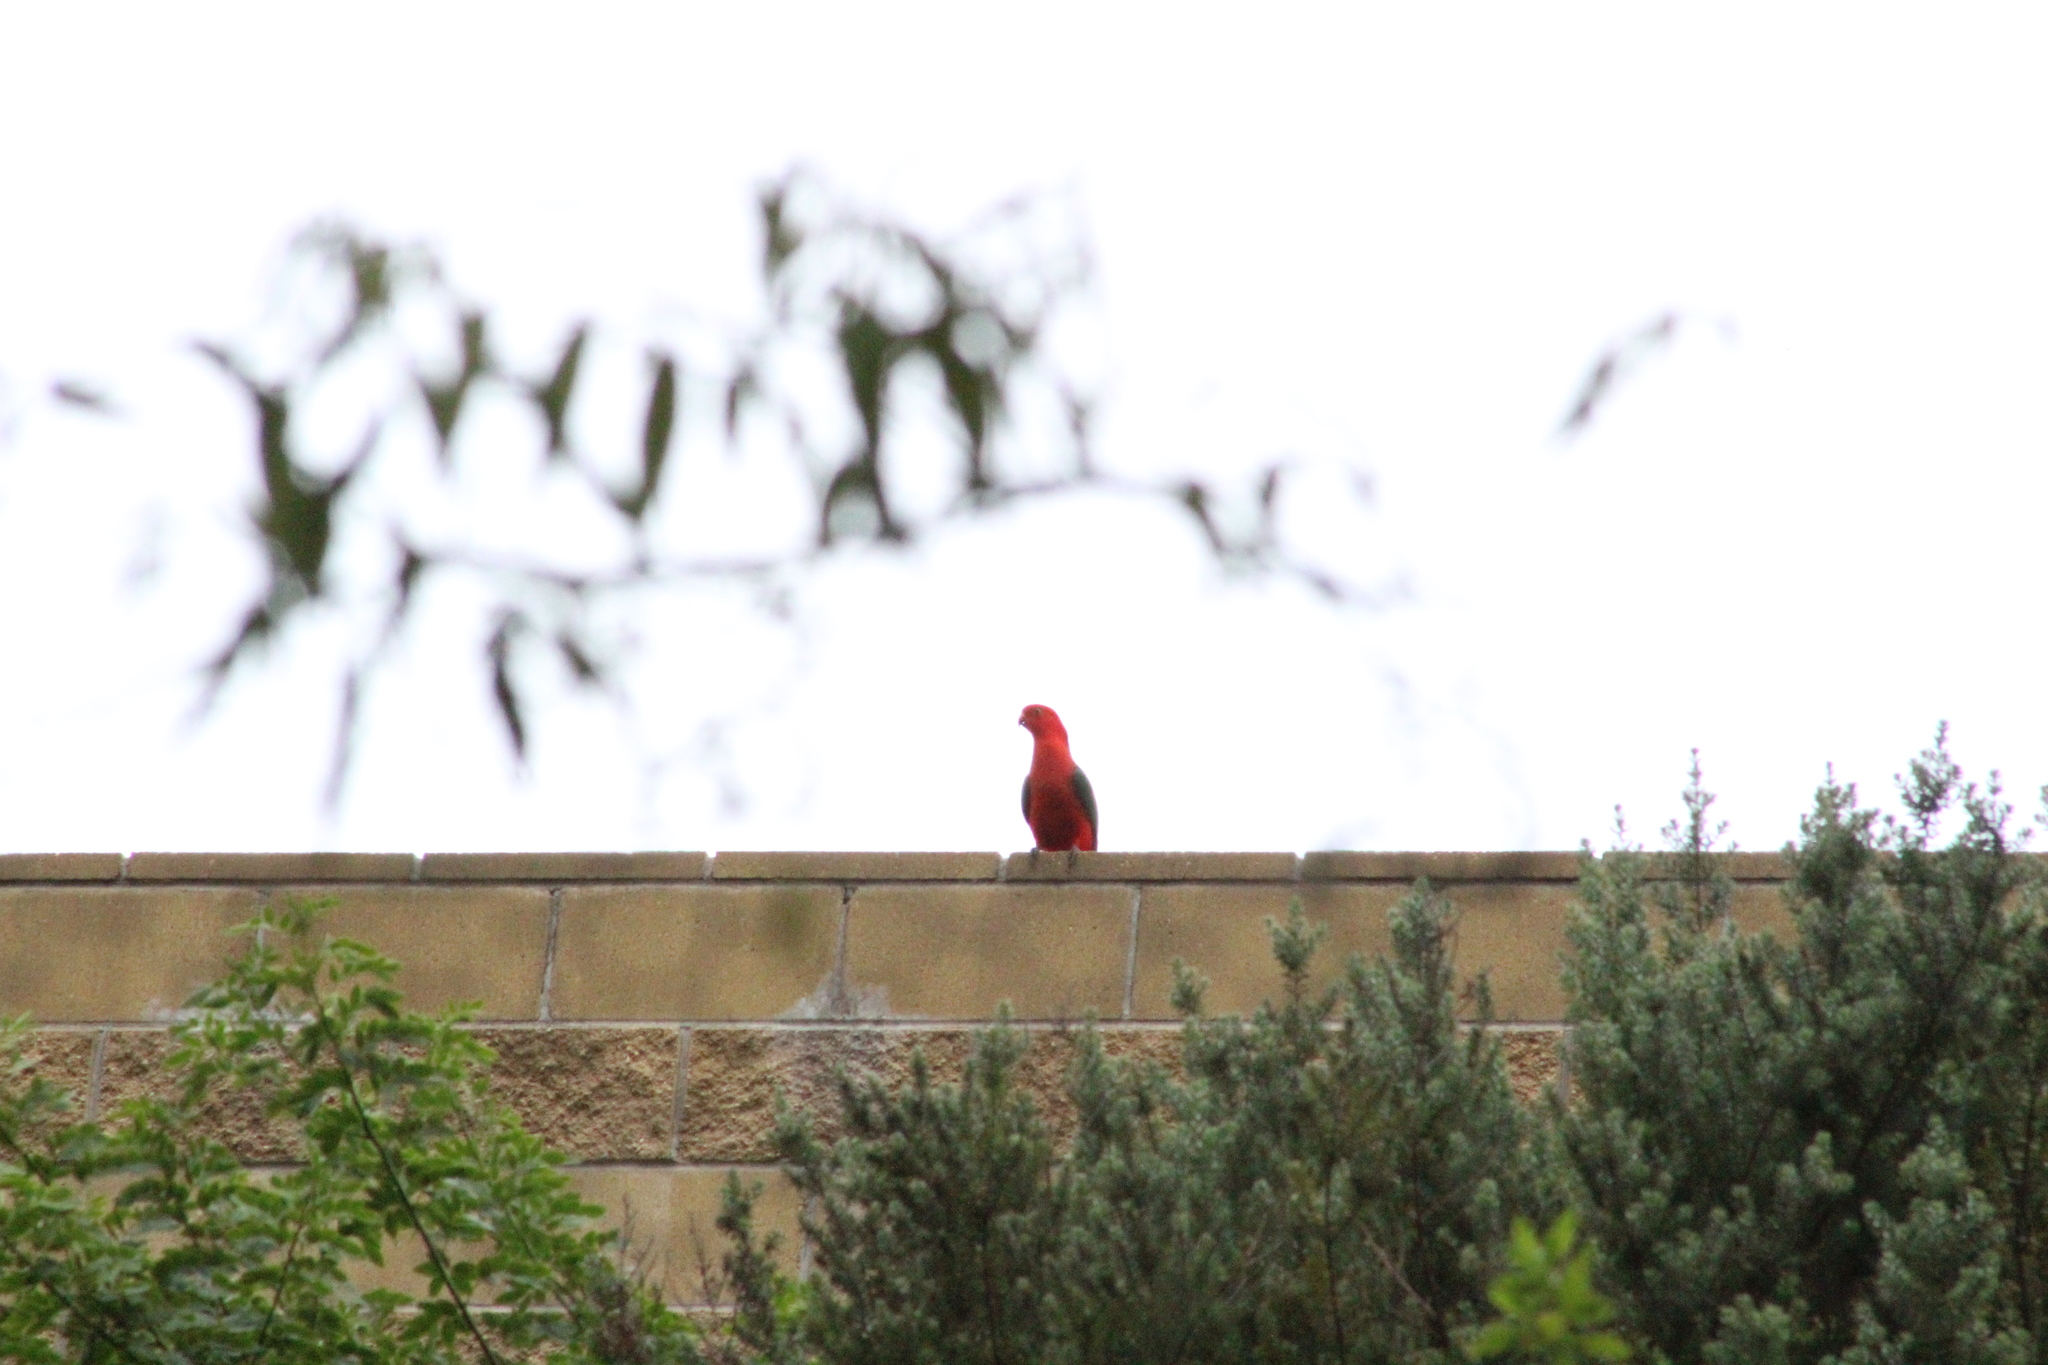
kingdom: Animalia
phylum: Chordata
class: Aves
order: Psittaciformes
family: Psittacidae
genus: Alisterus
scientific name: Alisterus scapularis
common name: Australian king parrot
